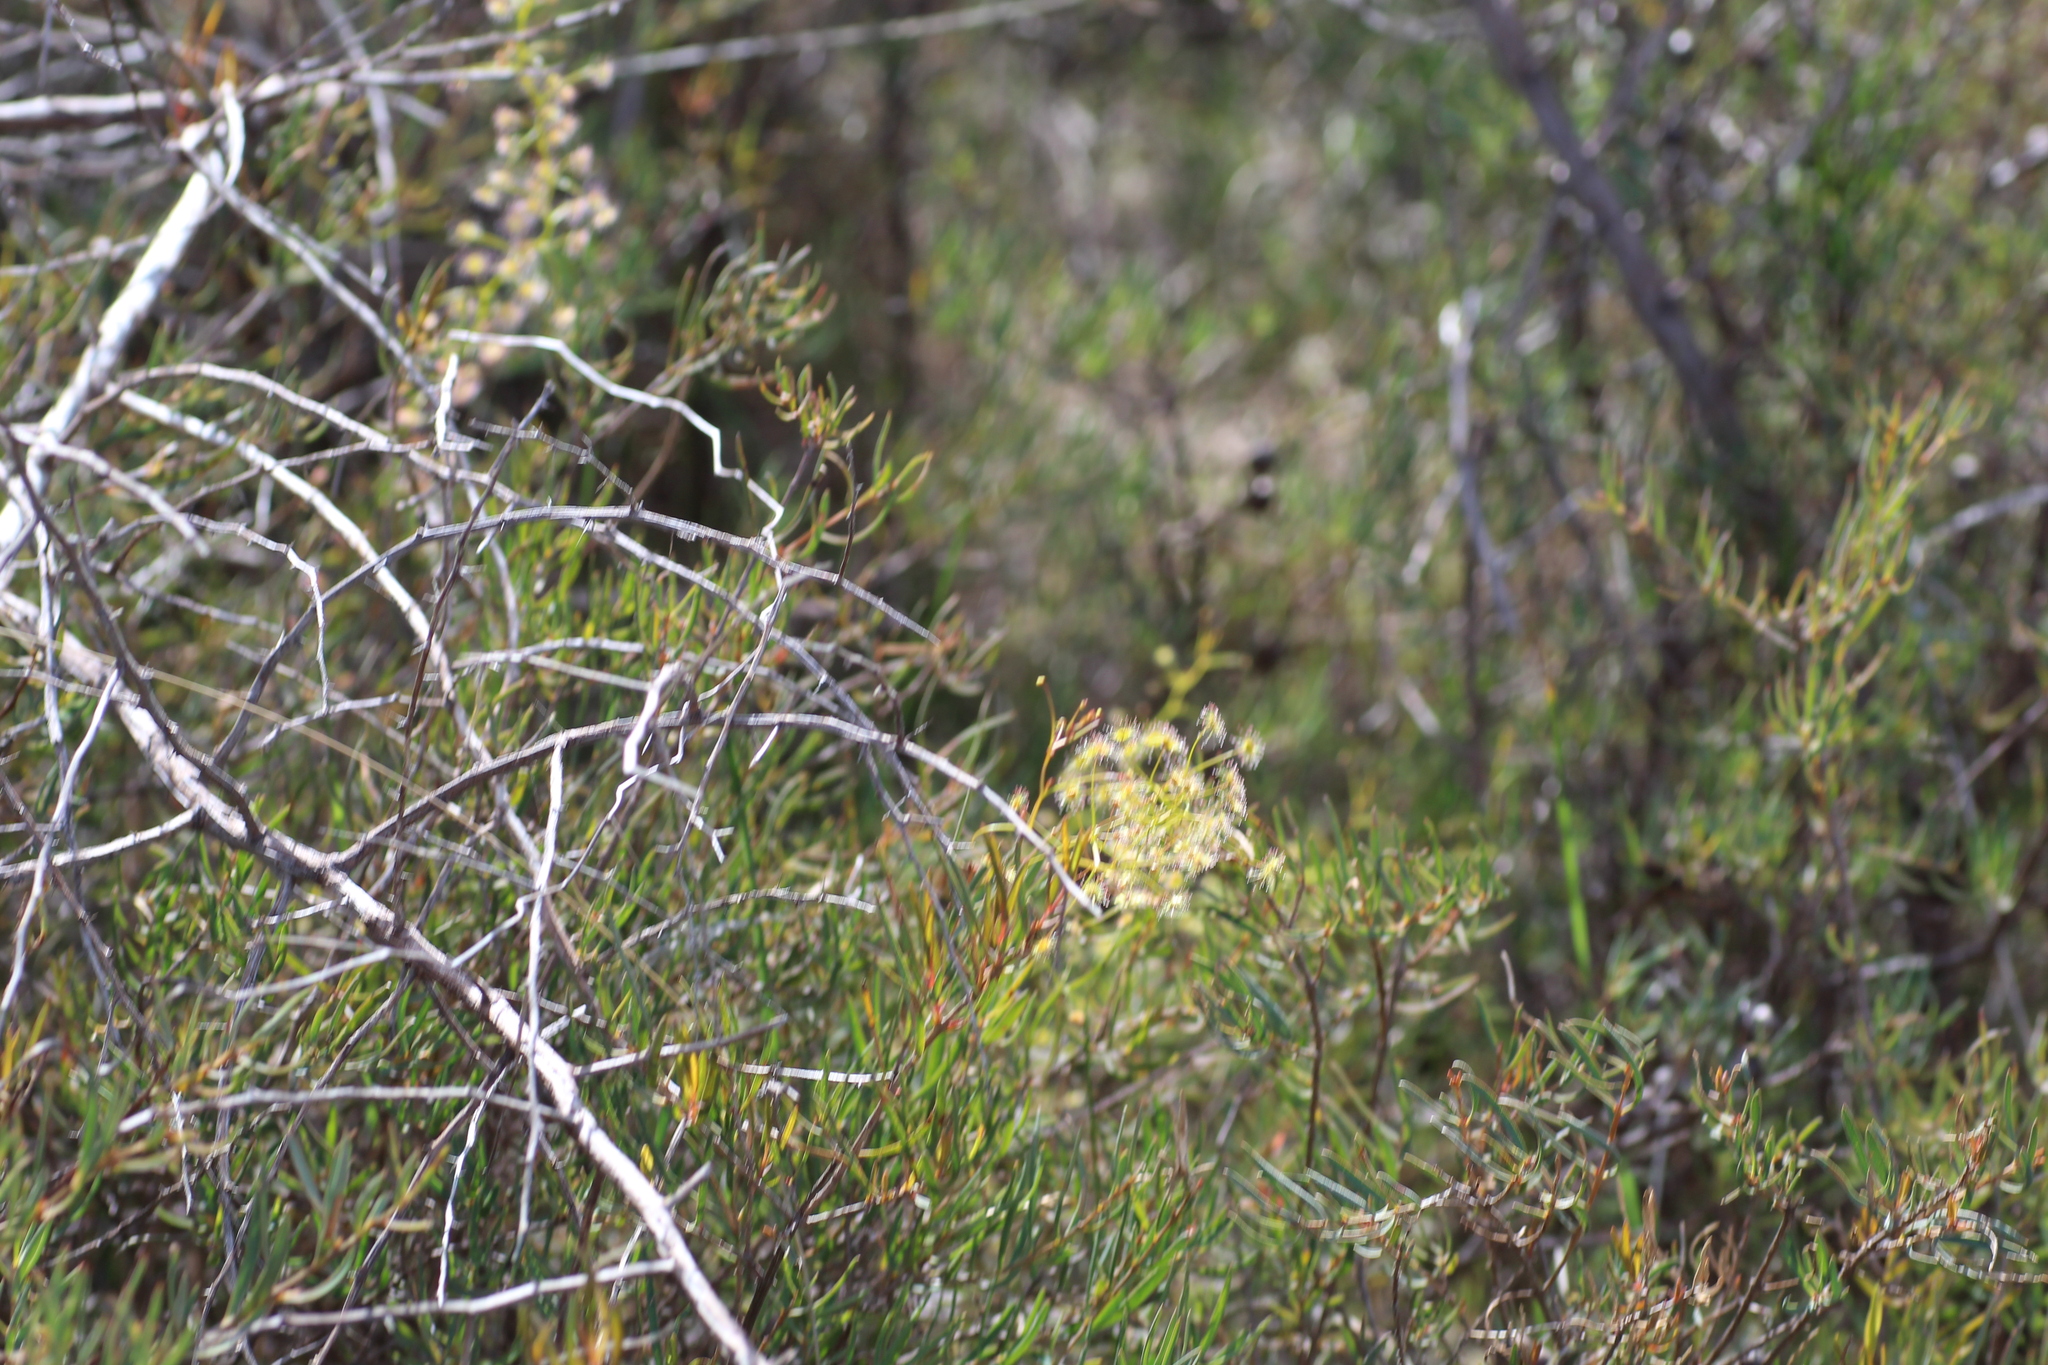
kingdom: Plantae
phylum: Tracheophyta
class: Magnoliopsida
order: Caryophyllales
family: Droseraceae
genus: Drosera
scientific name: Drosera pallida
